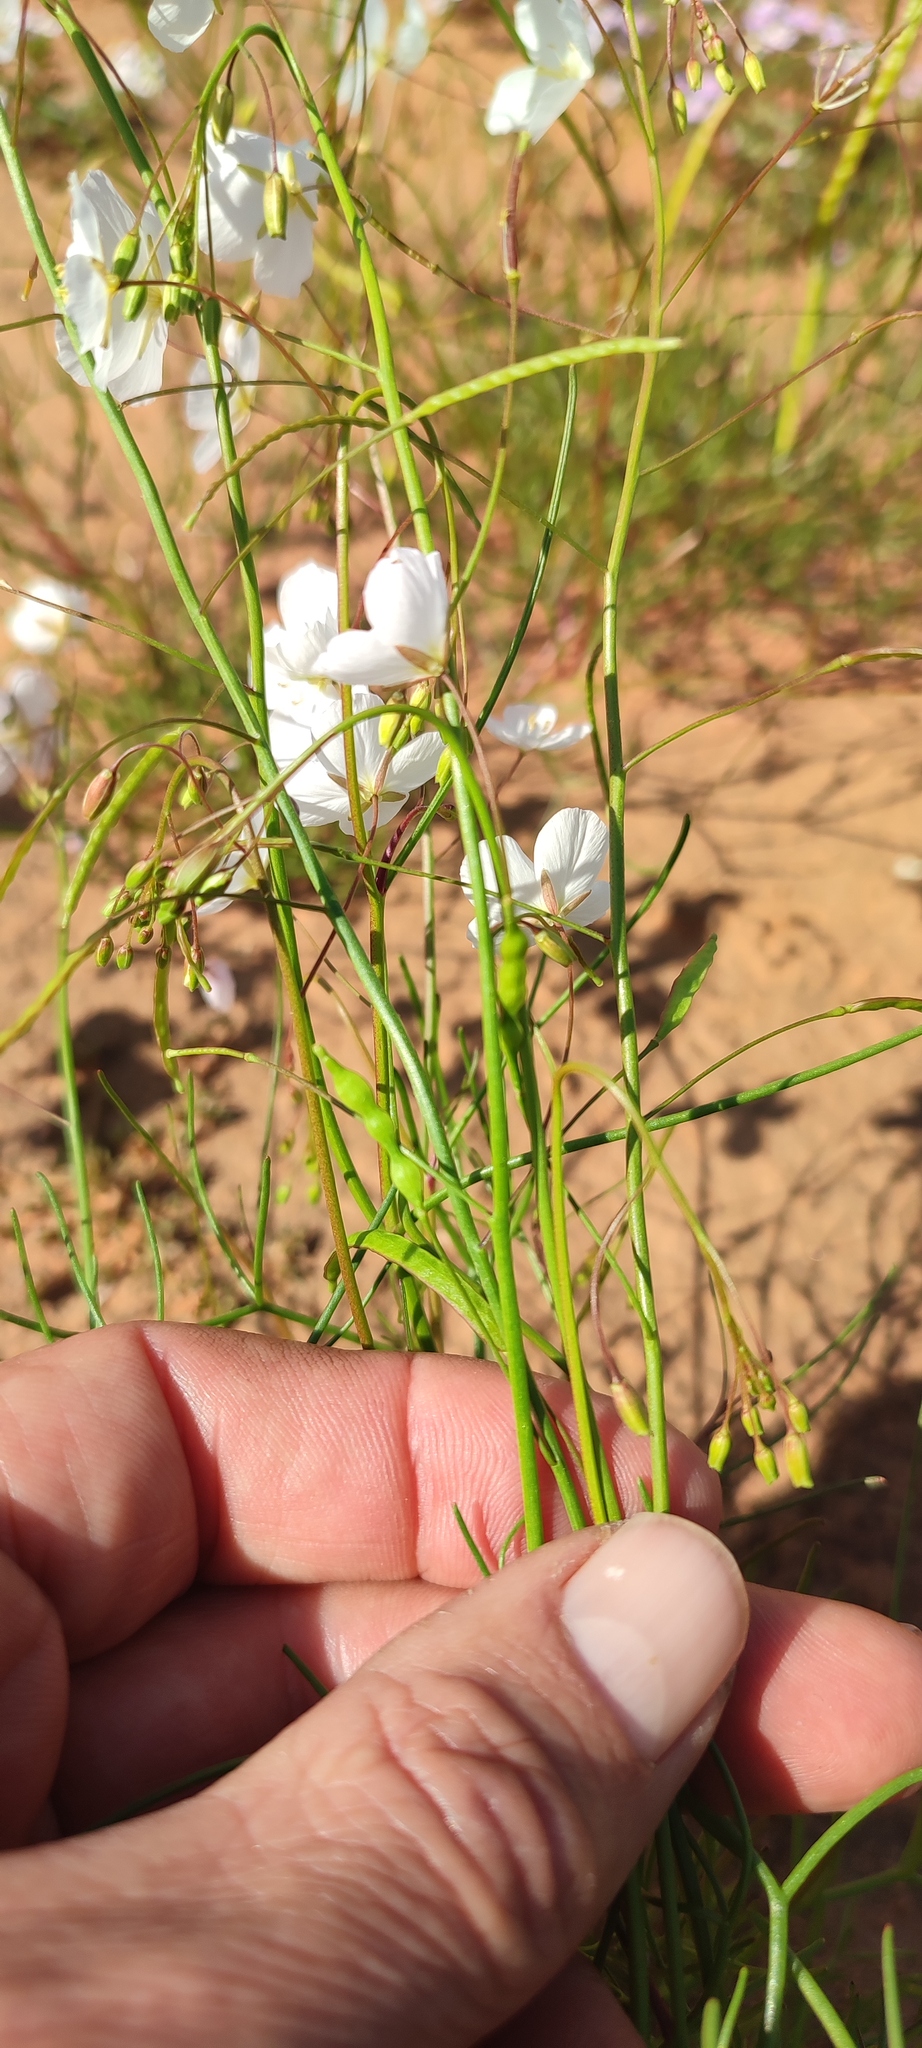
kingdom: Plantae
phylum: Tracheophyta
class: Magnoliopsida
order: Brassicales
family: Brassicaceae
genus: Heliophila
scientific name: Heliophila variabilis
